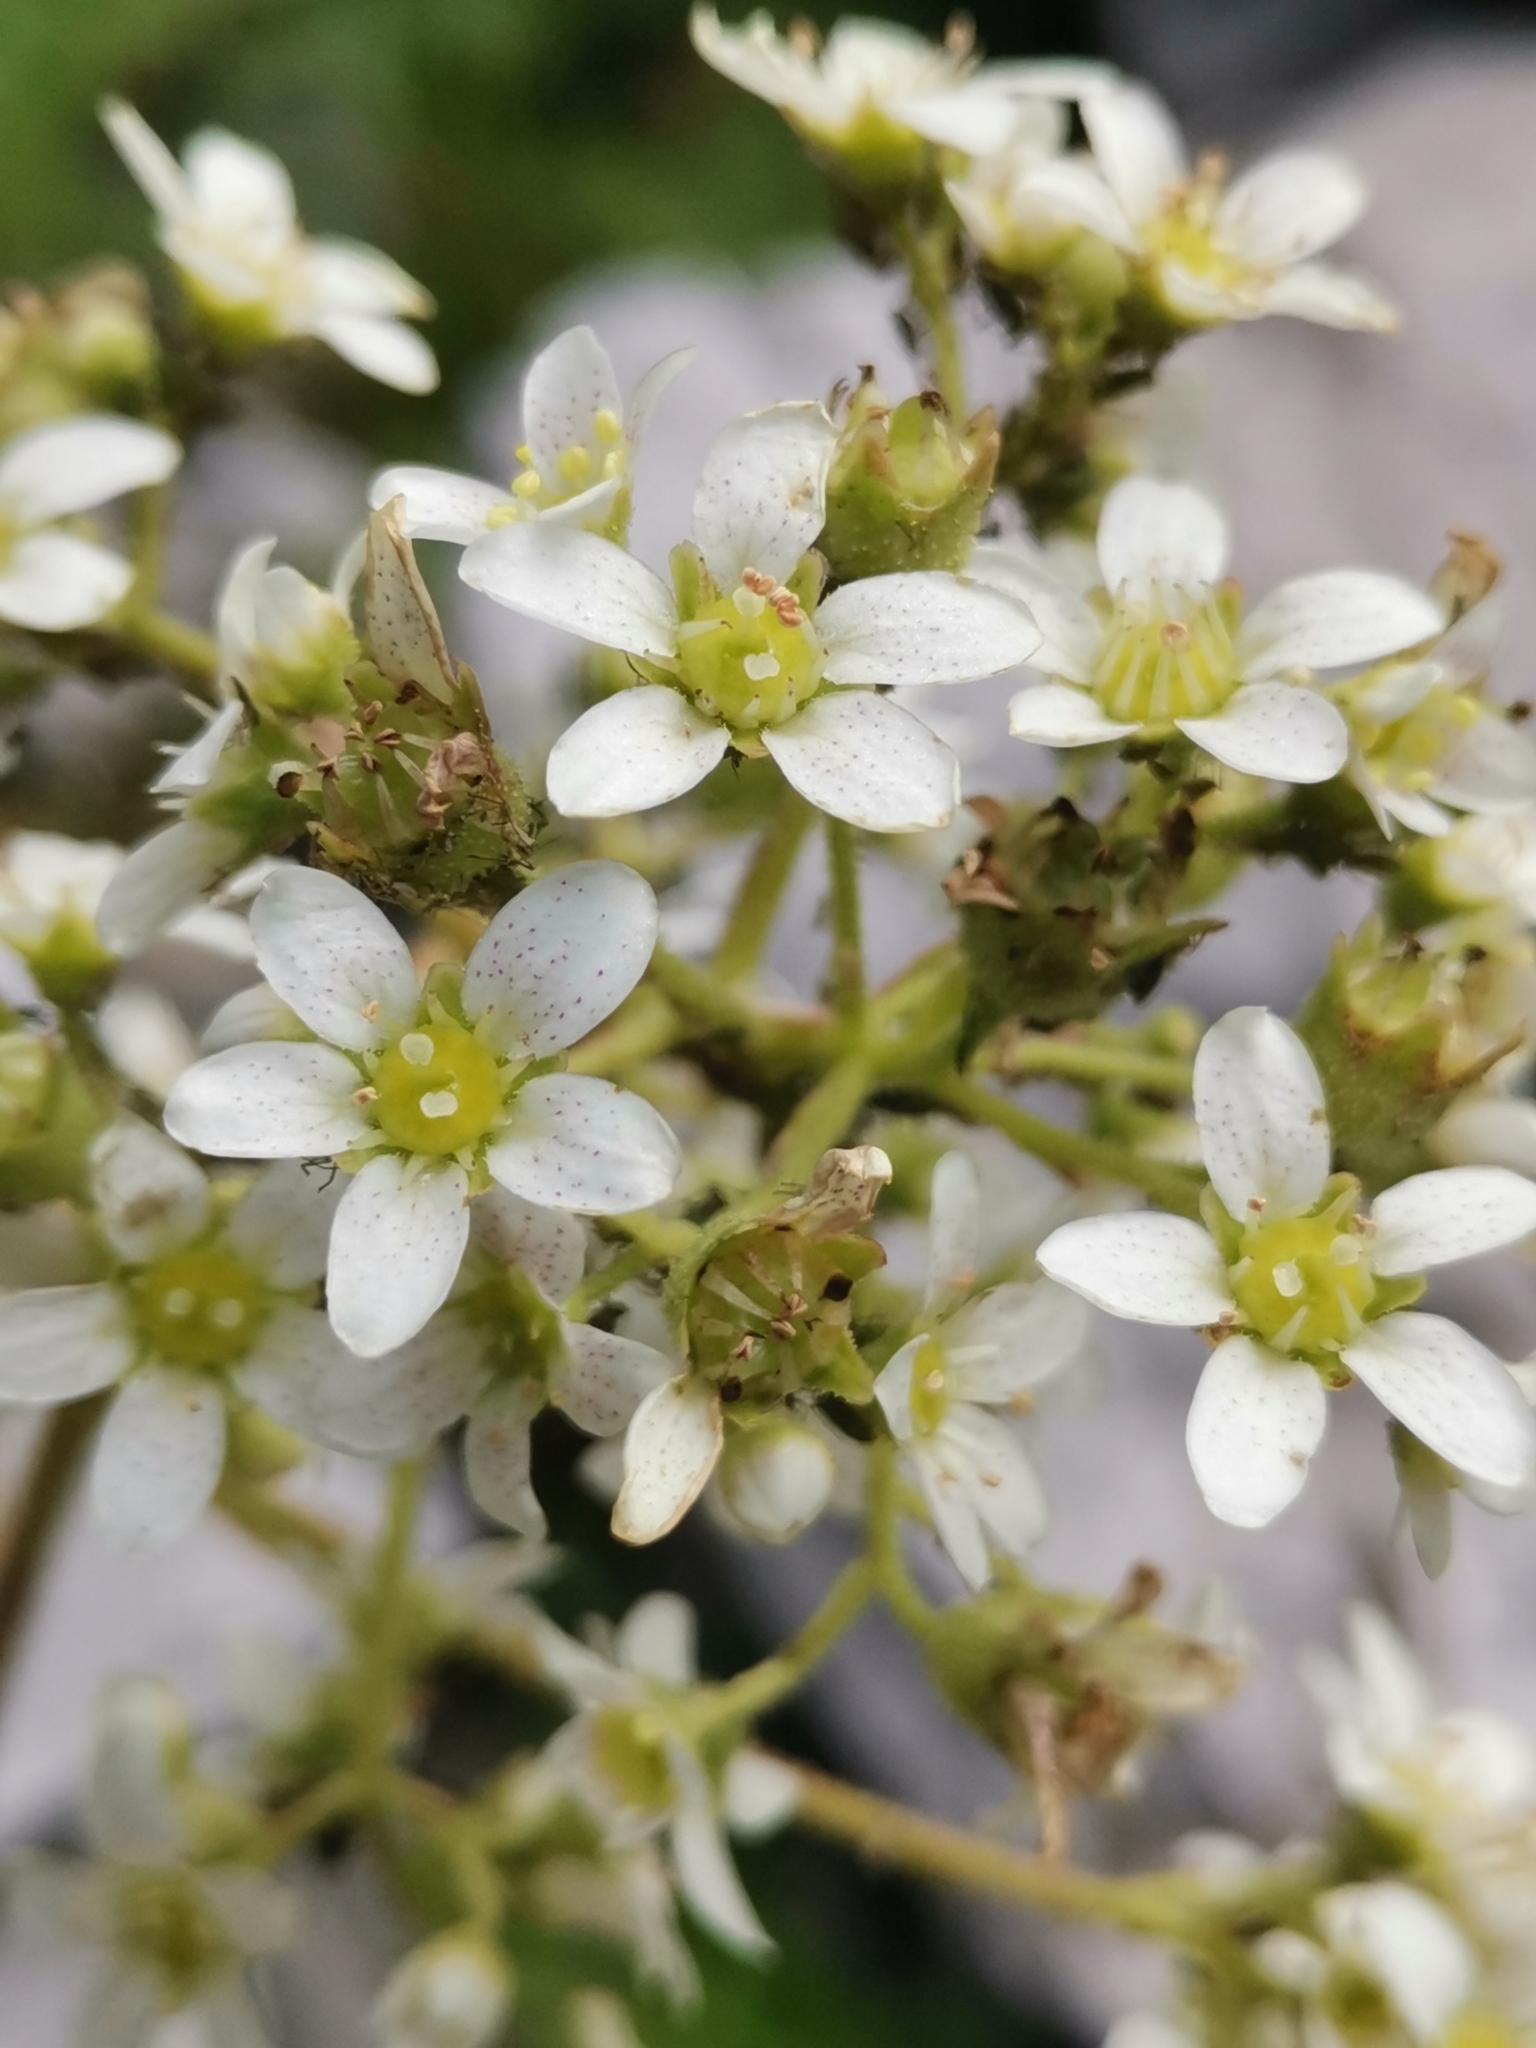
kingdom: Plantae
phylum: Tracheophyta
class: Magnoliopsida
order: Saxifragales
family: Saxifragaceae
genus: Saxifraga
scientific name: Saxifraga hostii
